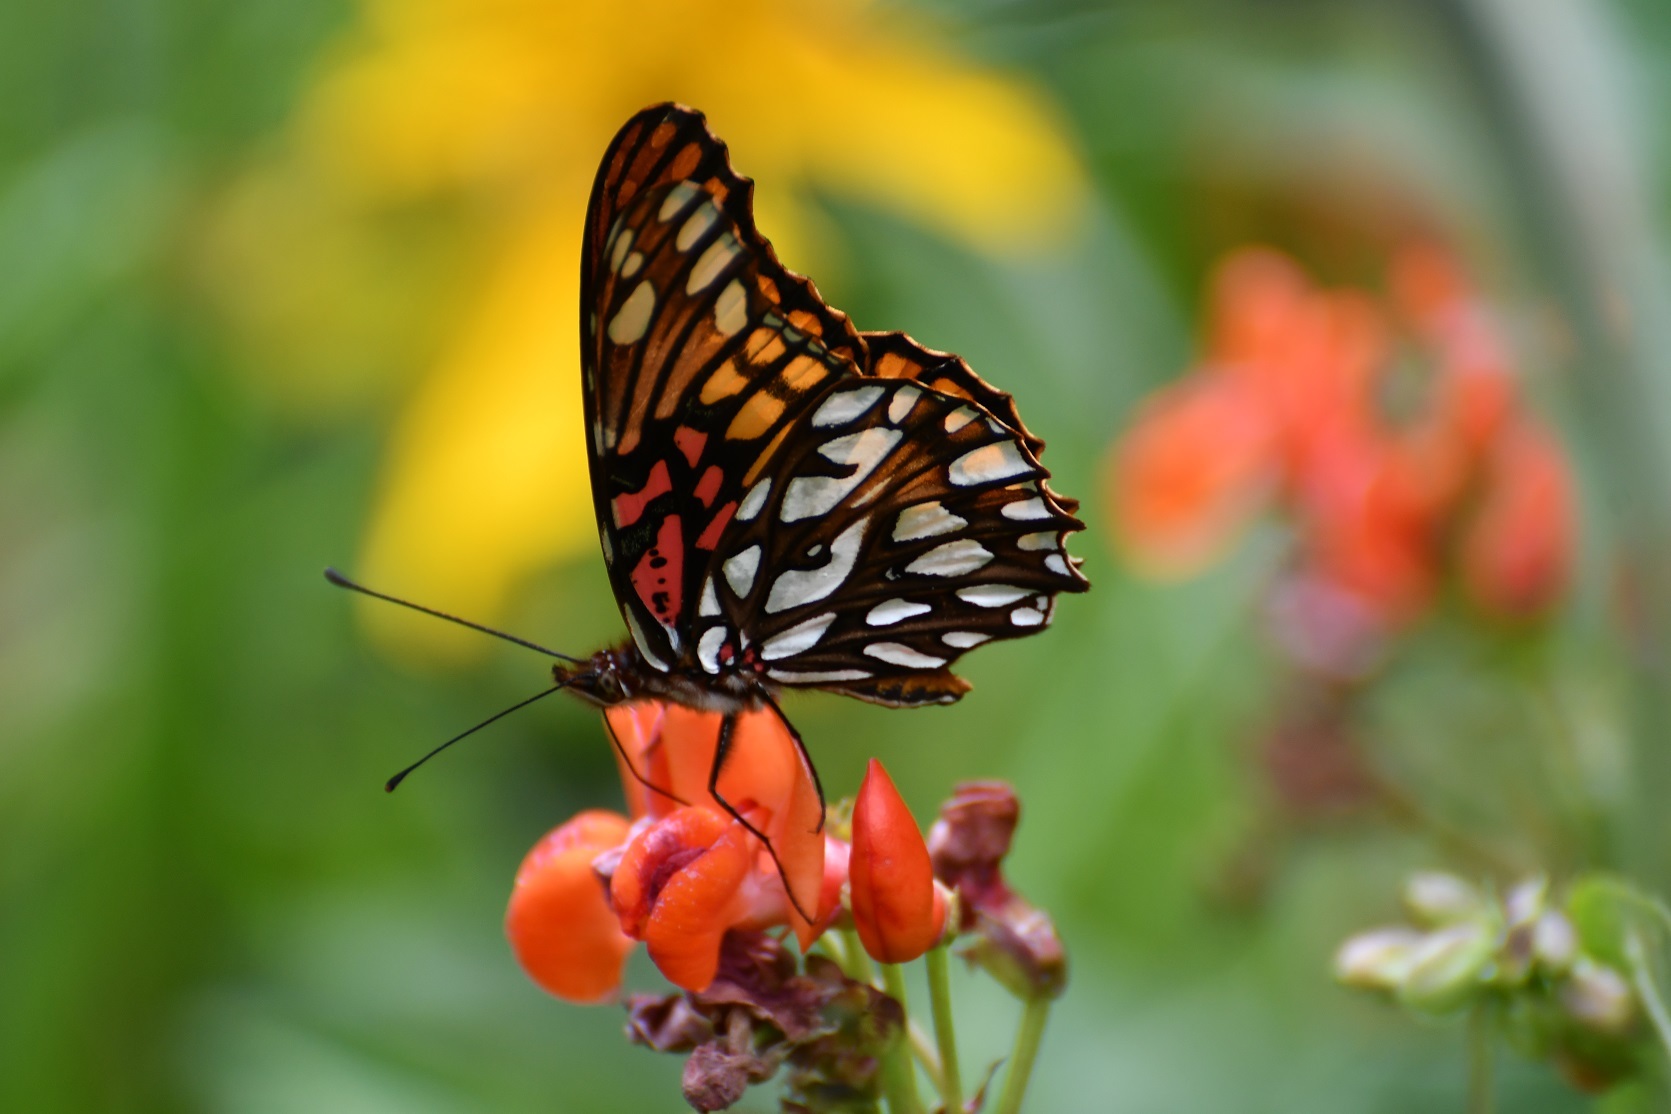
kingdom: Animalia
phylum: Arthropoda
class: Insecta
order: Lepidoptera
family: Nymphalidae
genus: Dione
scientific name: Dione moneta
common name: Mexican silverspot
